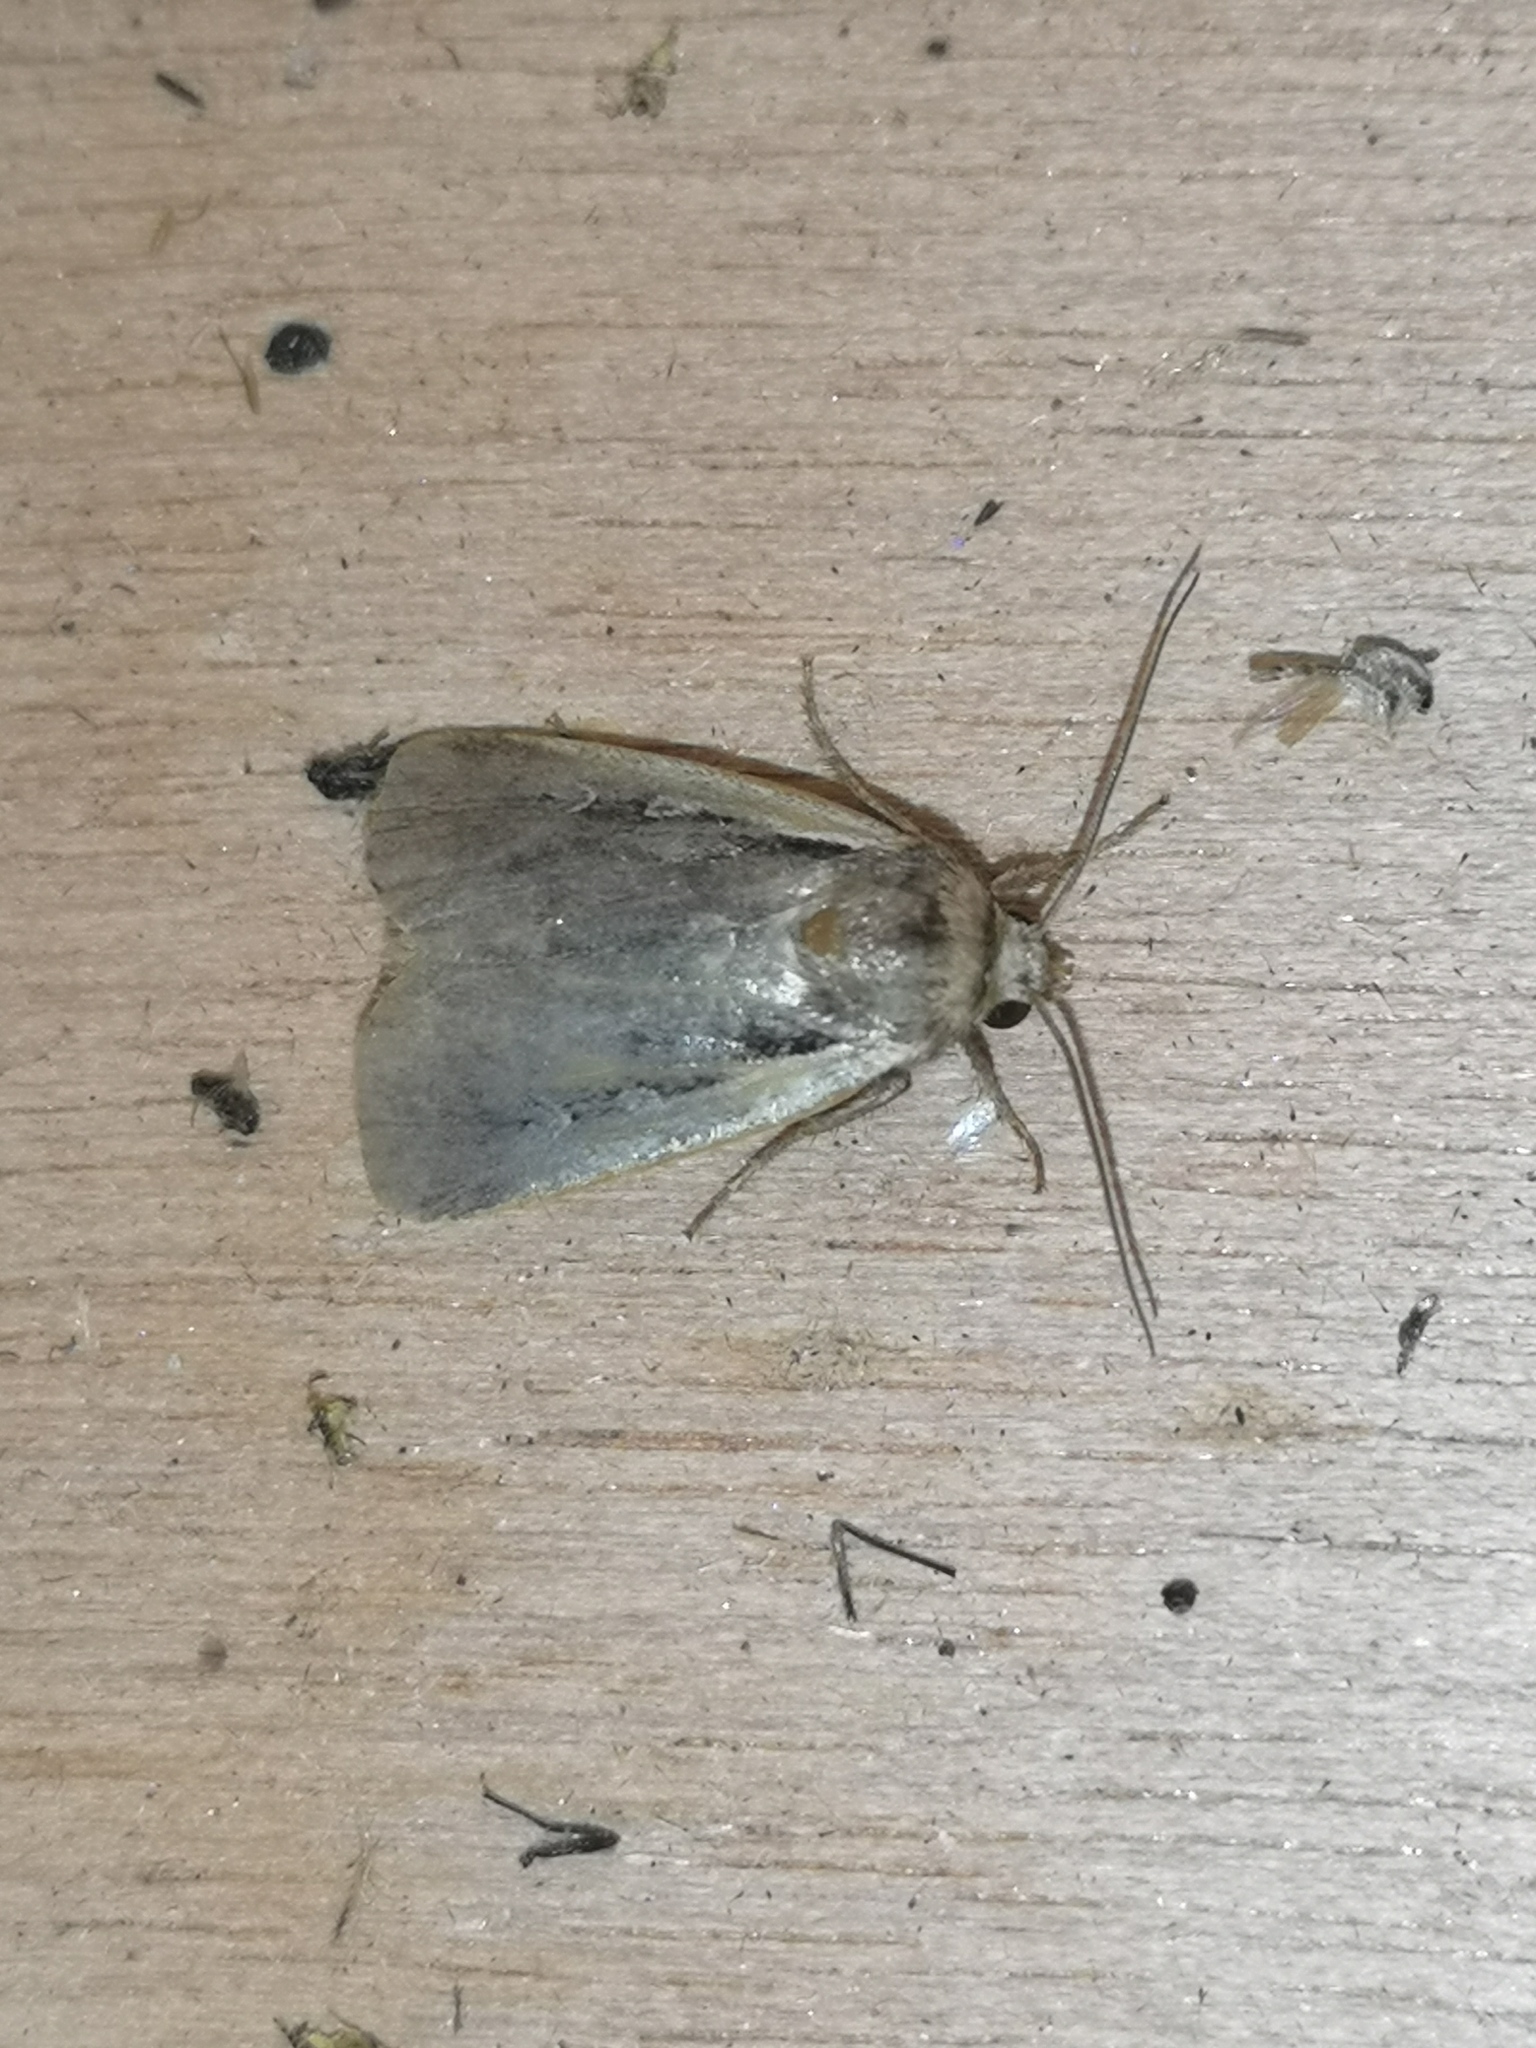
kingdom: Animalia
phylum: Arthropoda
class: Insecta
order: Lepidoptera
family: Noctuidae
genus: Ochropleura
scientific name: Ochropleura plecta
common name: Flame shoulder
